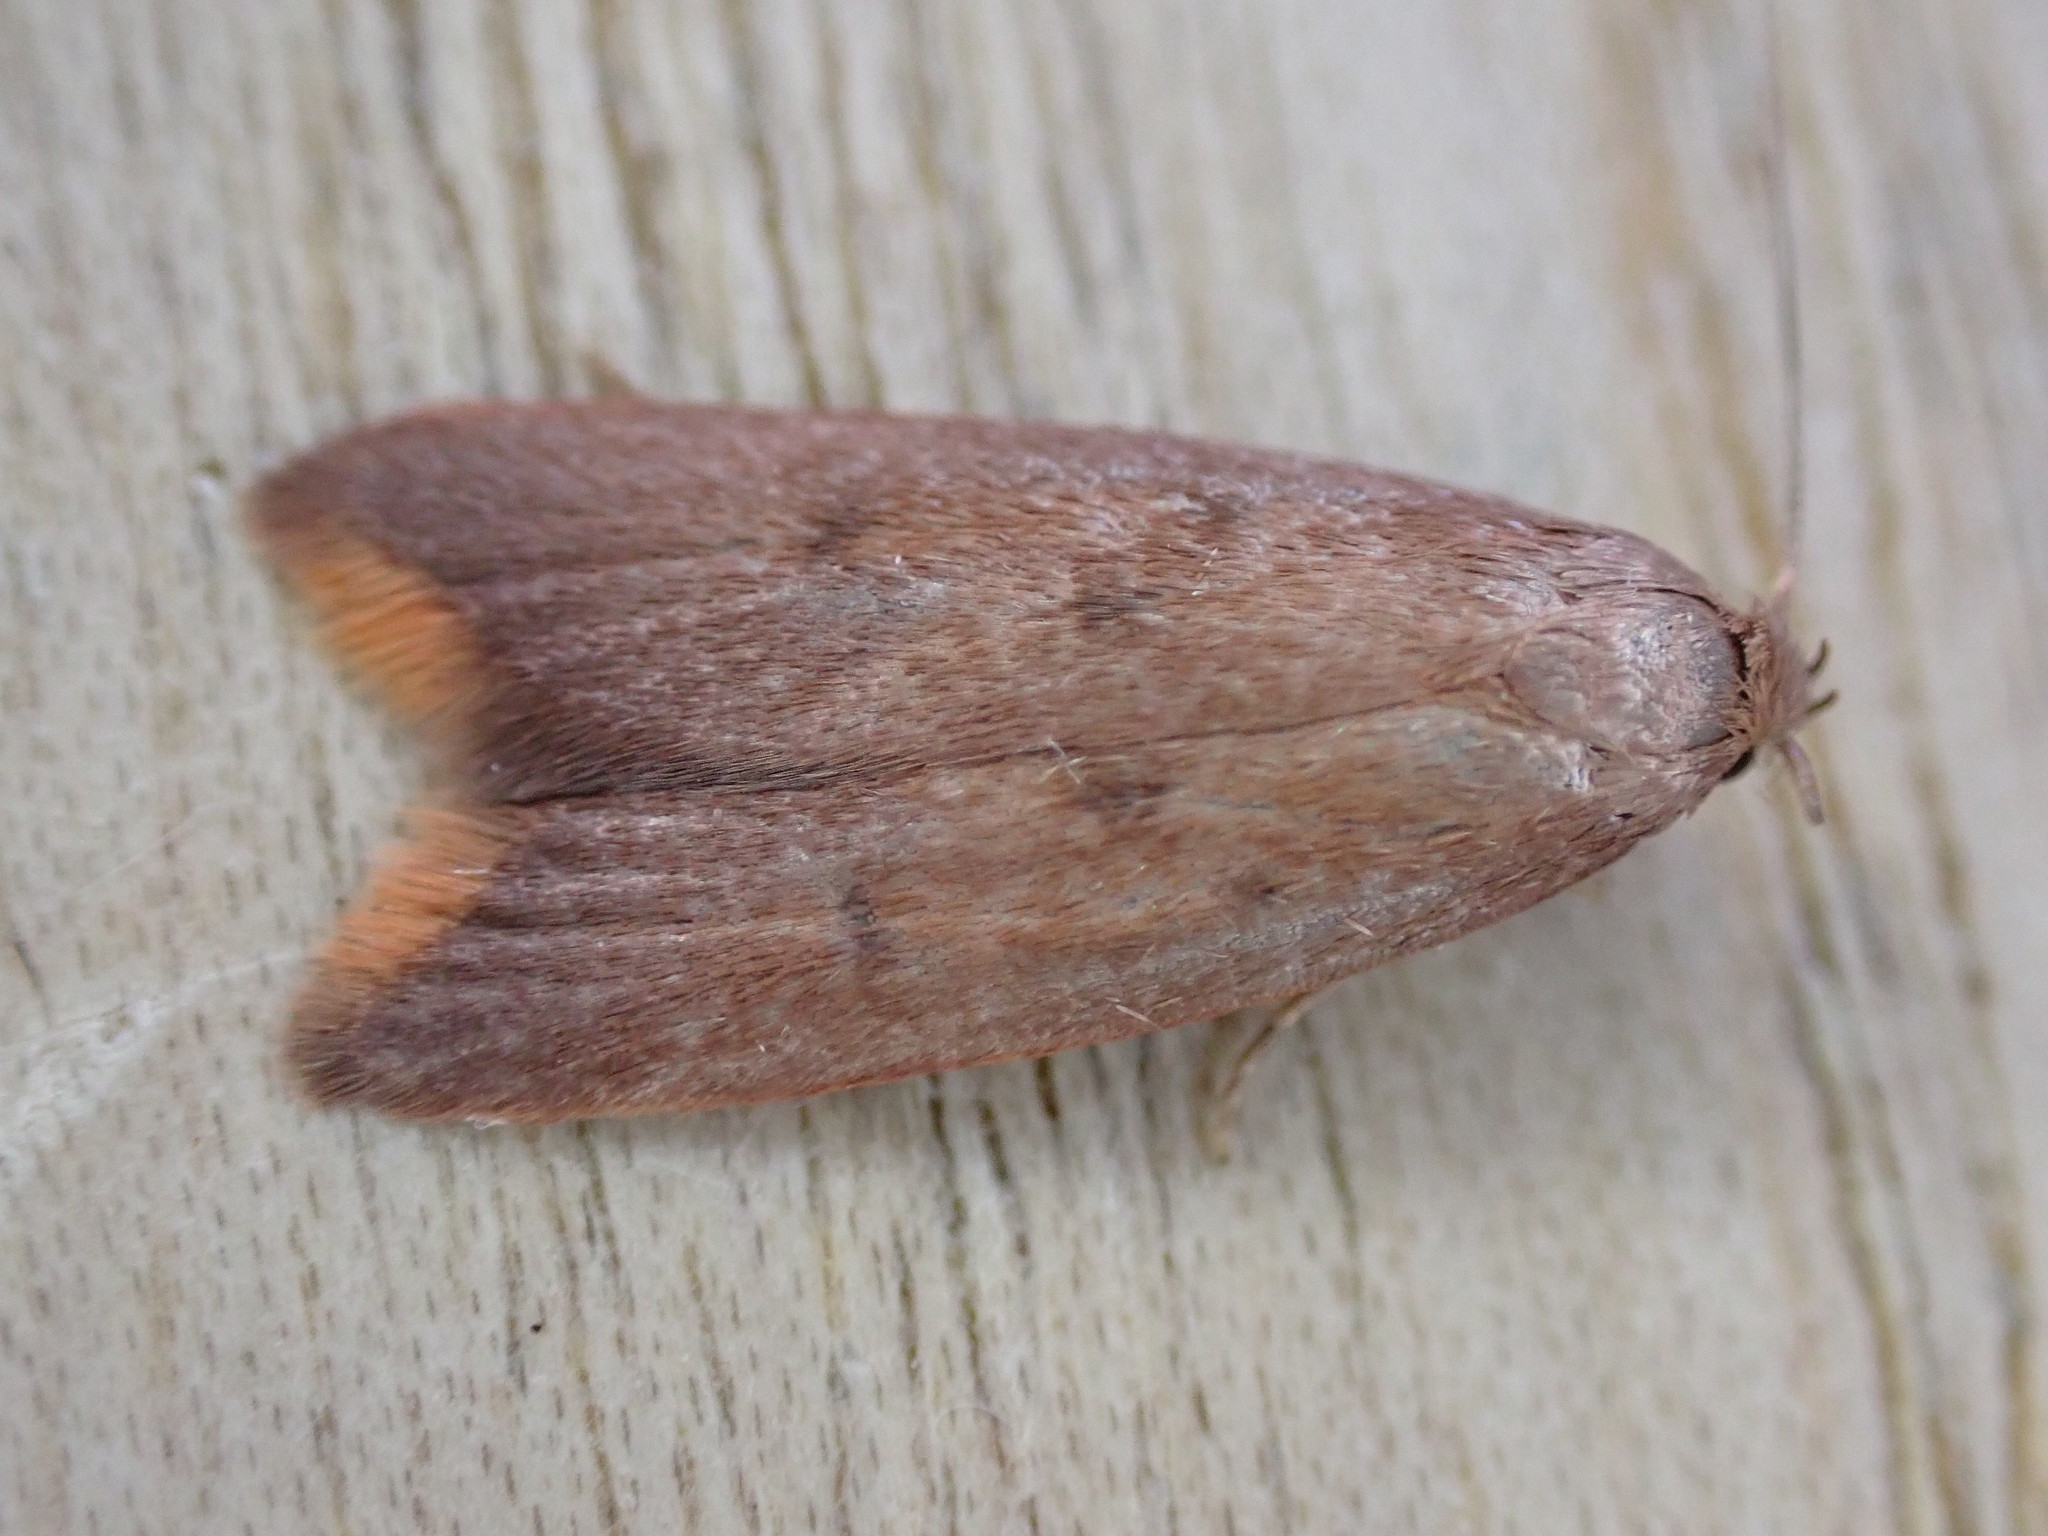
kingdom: Animalia
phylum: Arthropoda
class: Insecta
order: Lepidoptera
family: Oecophoridae
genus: Tachystola
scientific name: Tachystola acroxantha
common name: Ruddy streak
